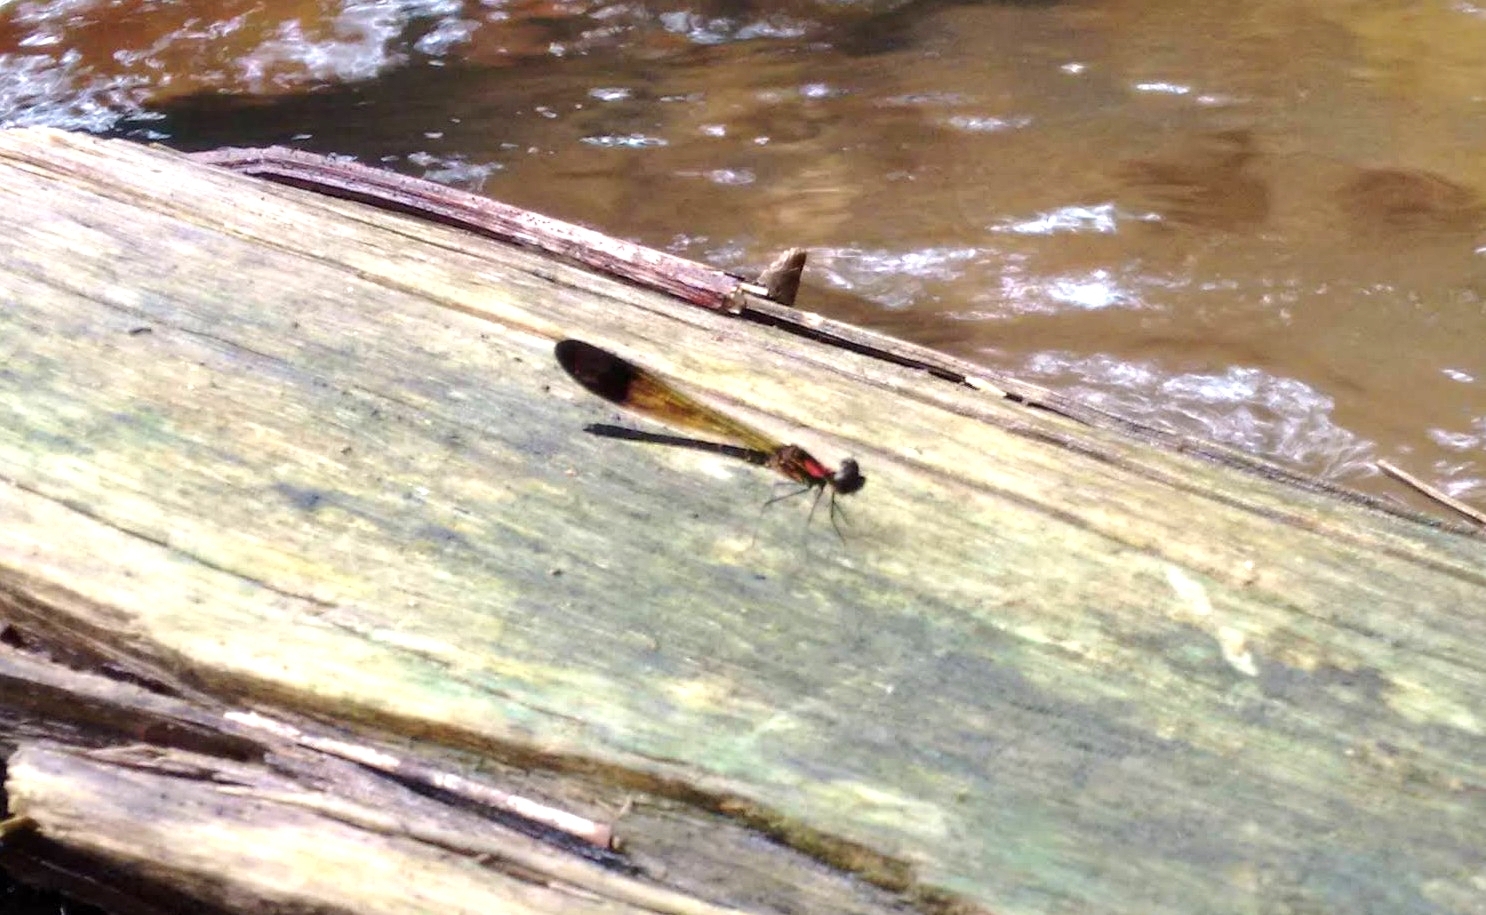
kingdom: Animalia
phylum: Arthropoda
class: Insecta
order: Odonata
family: Chlorocyphidae
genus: Heliocypha
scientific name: Heliocypha bisignata
